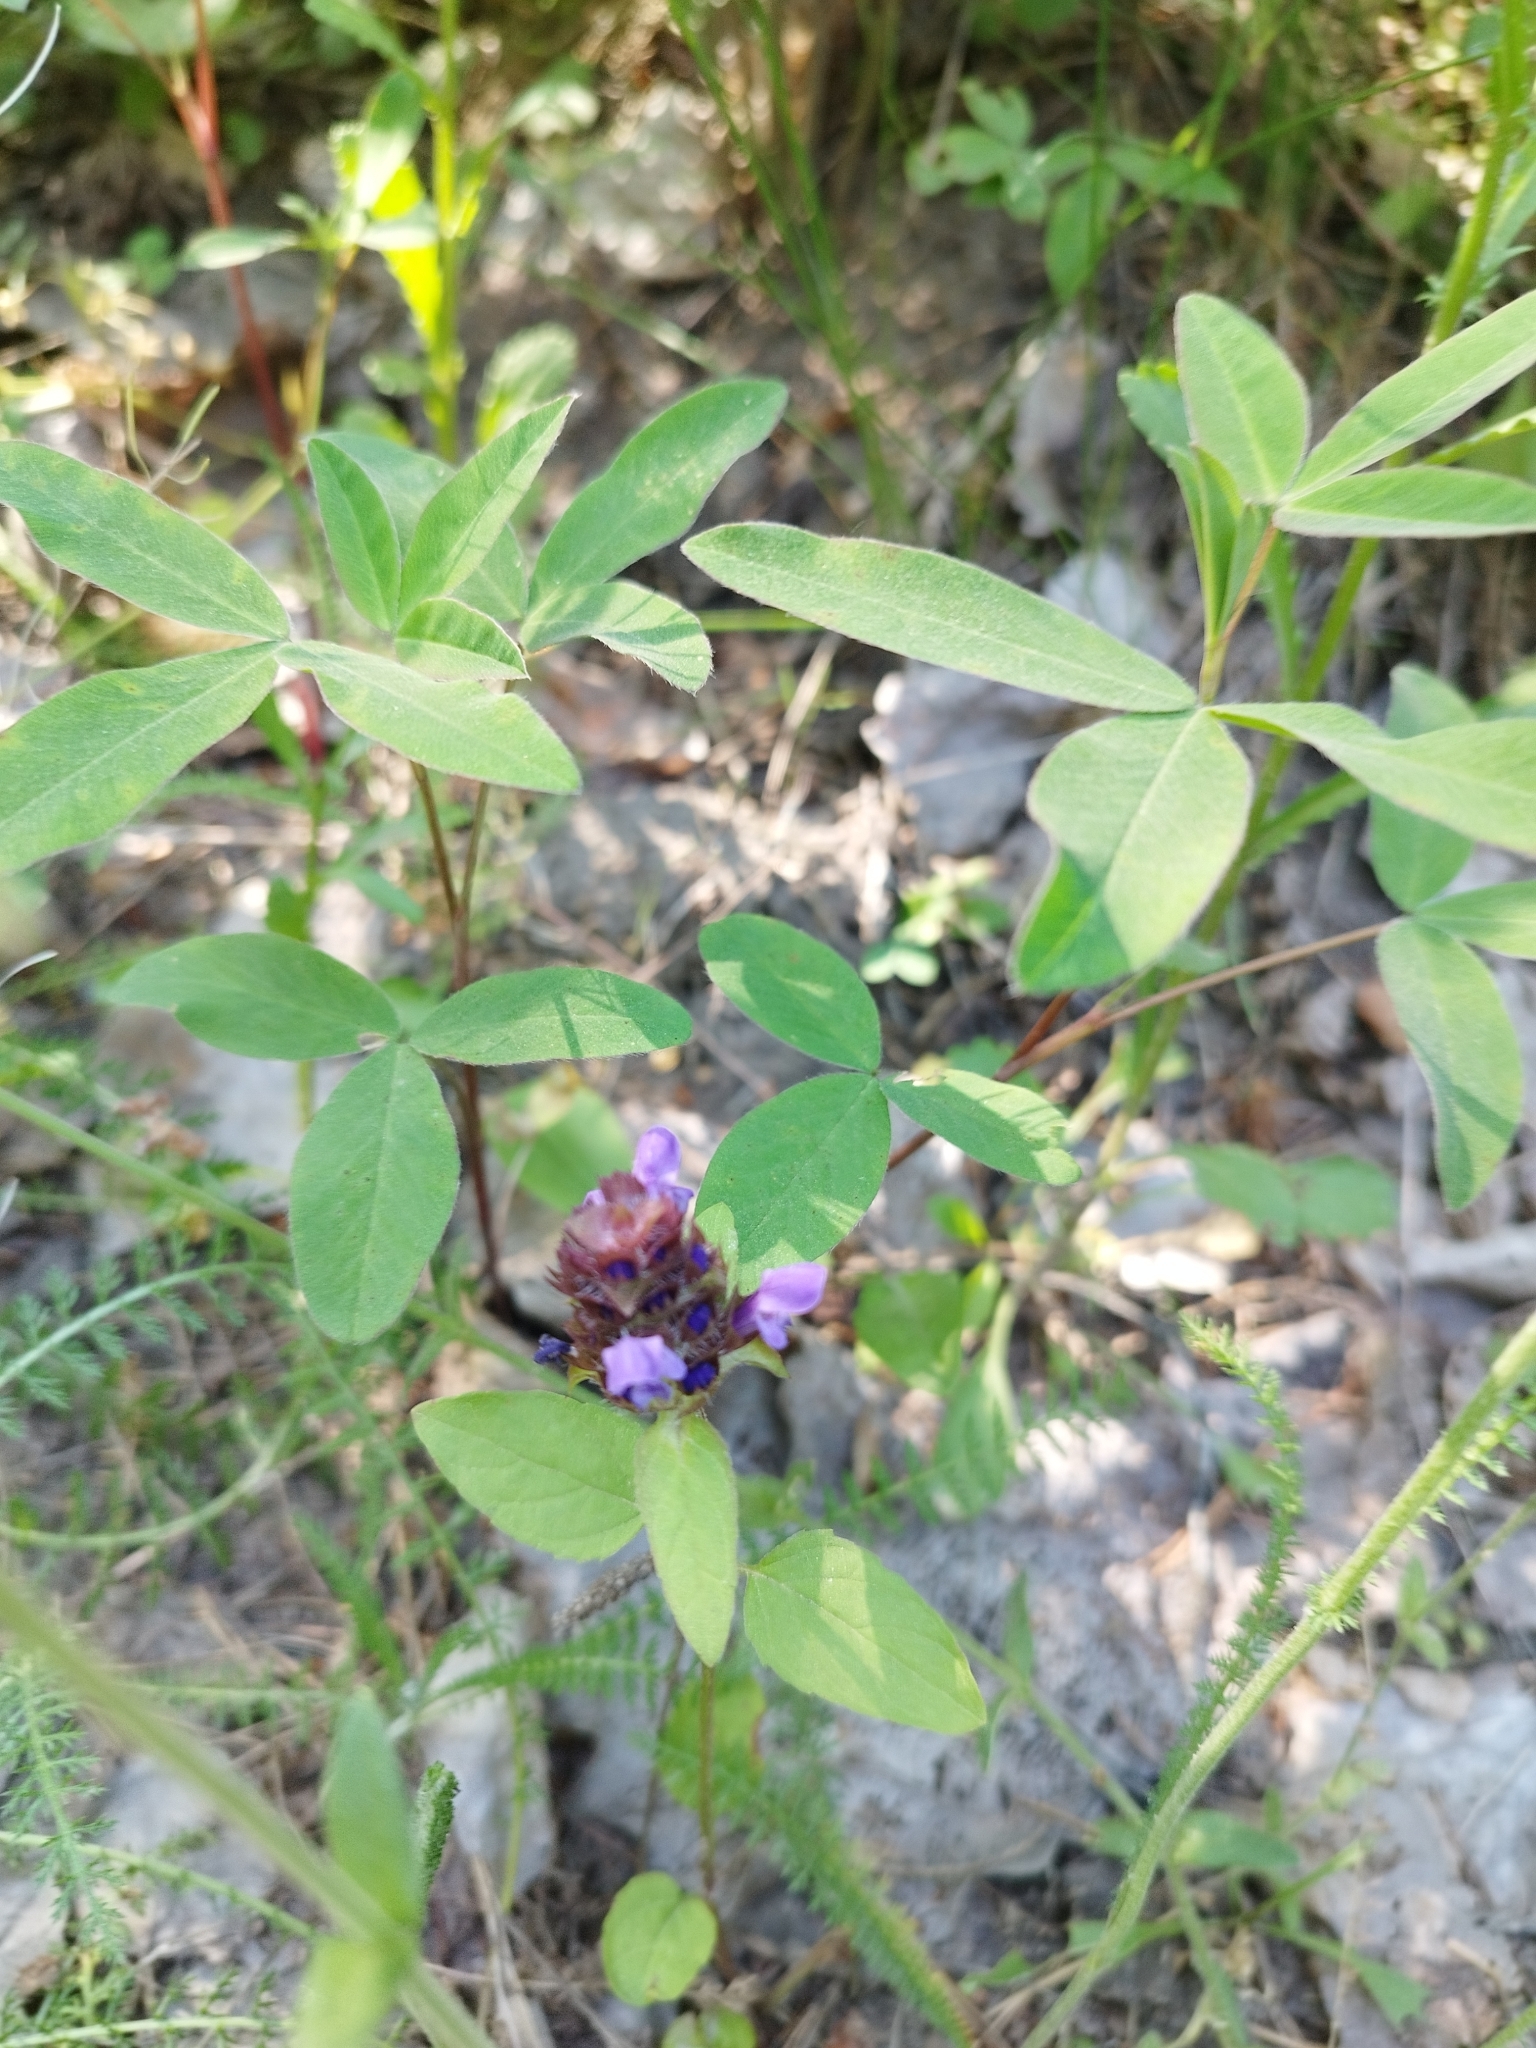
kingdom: Plantae
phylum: Tracheophyta
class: Magnoliopsida
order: Lamiales
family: Lamiaceae
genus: Prunella
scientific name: Prunella vulgaris
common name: Heal-all
